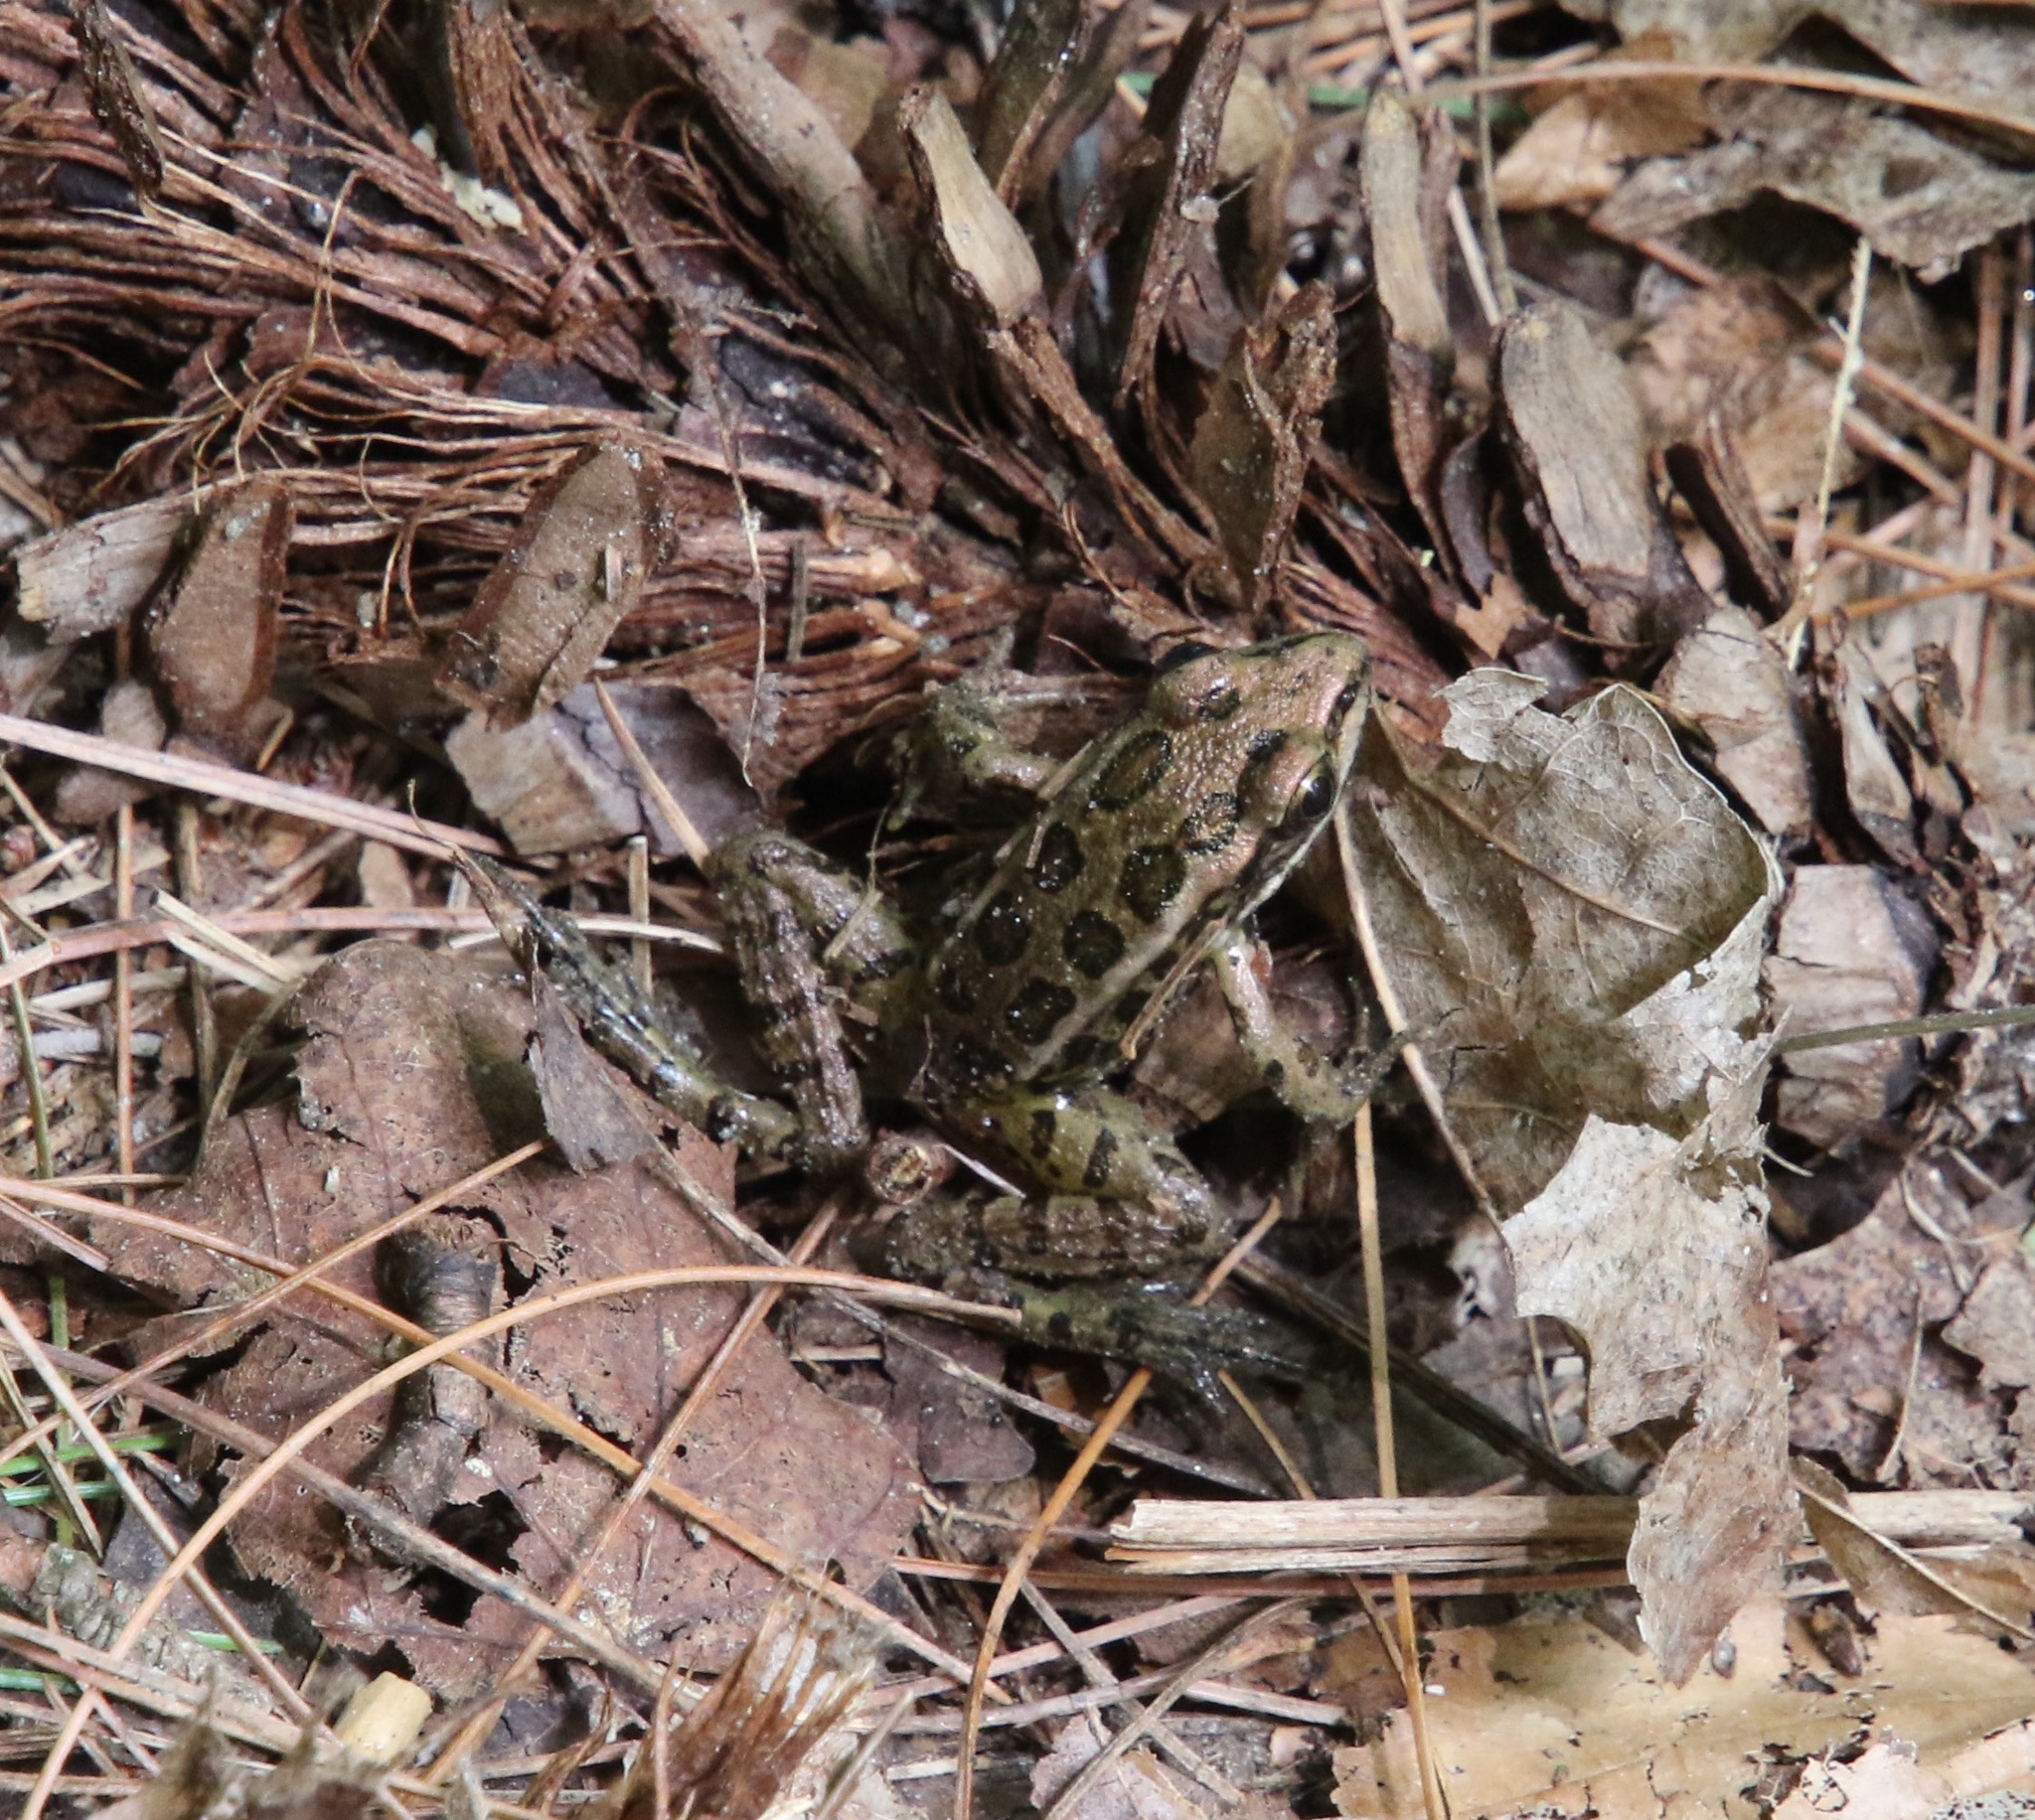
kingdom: Animalia
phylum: Chordata
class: Amphibia
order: Anura
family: Ranidae
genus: Lithobates
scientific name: Lithobates palustris
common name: Pickerel frog
